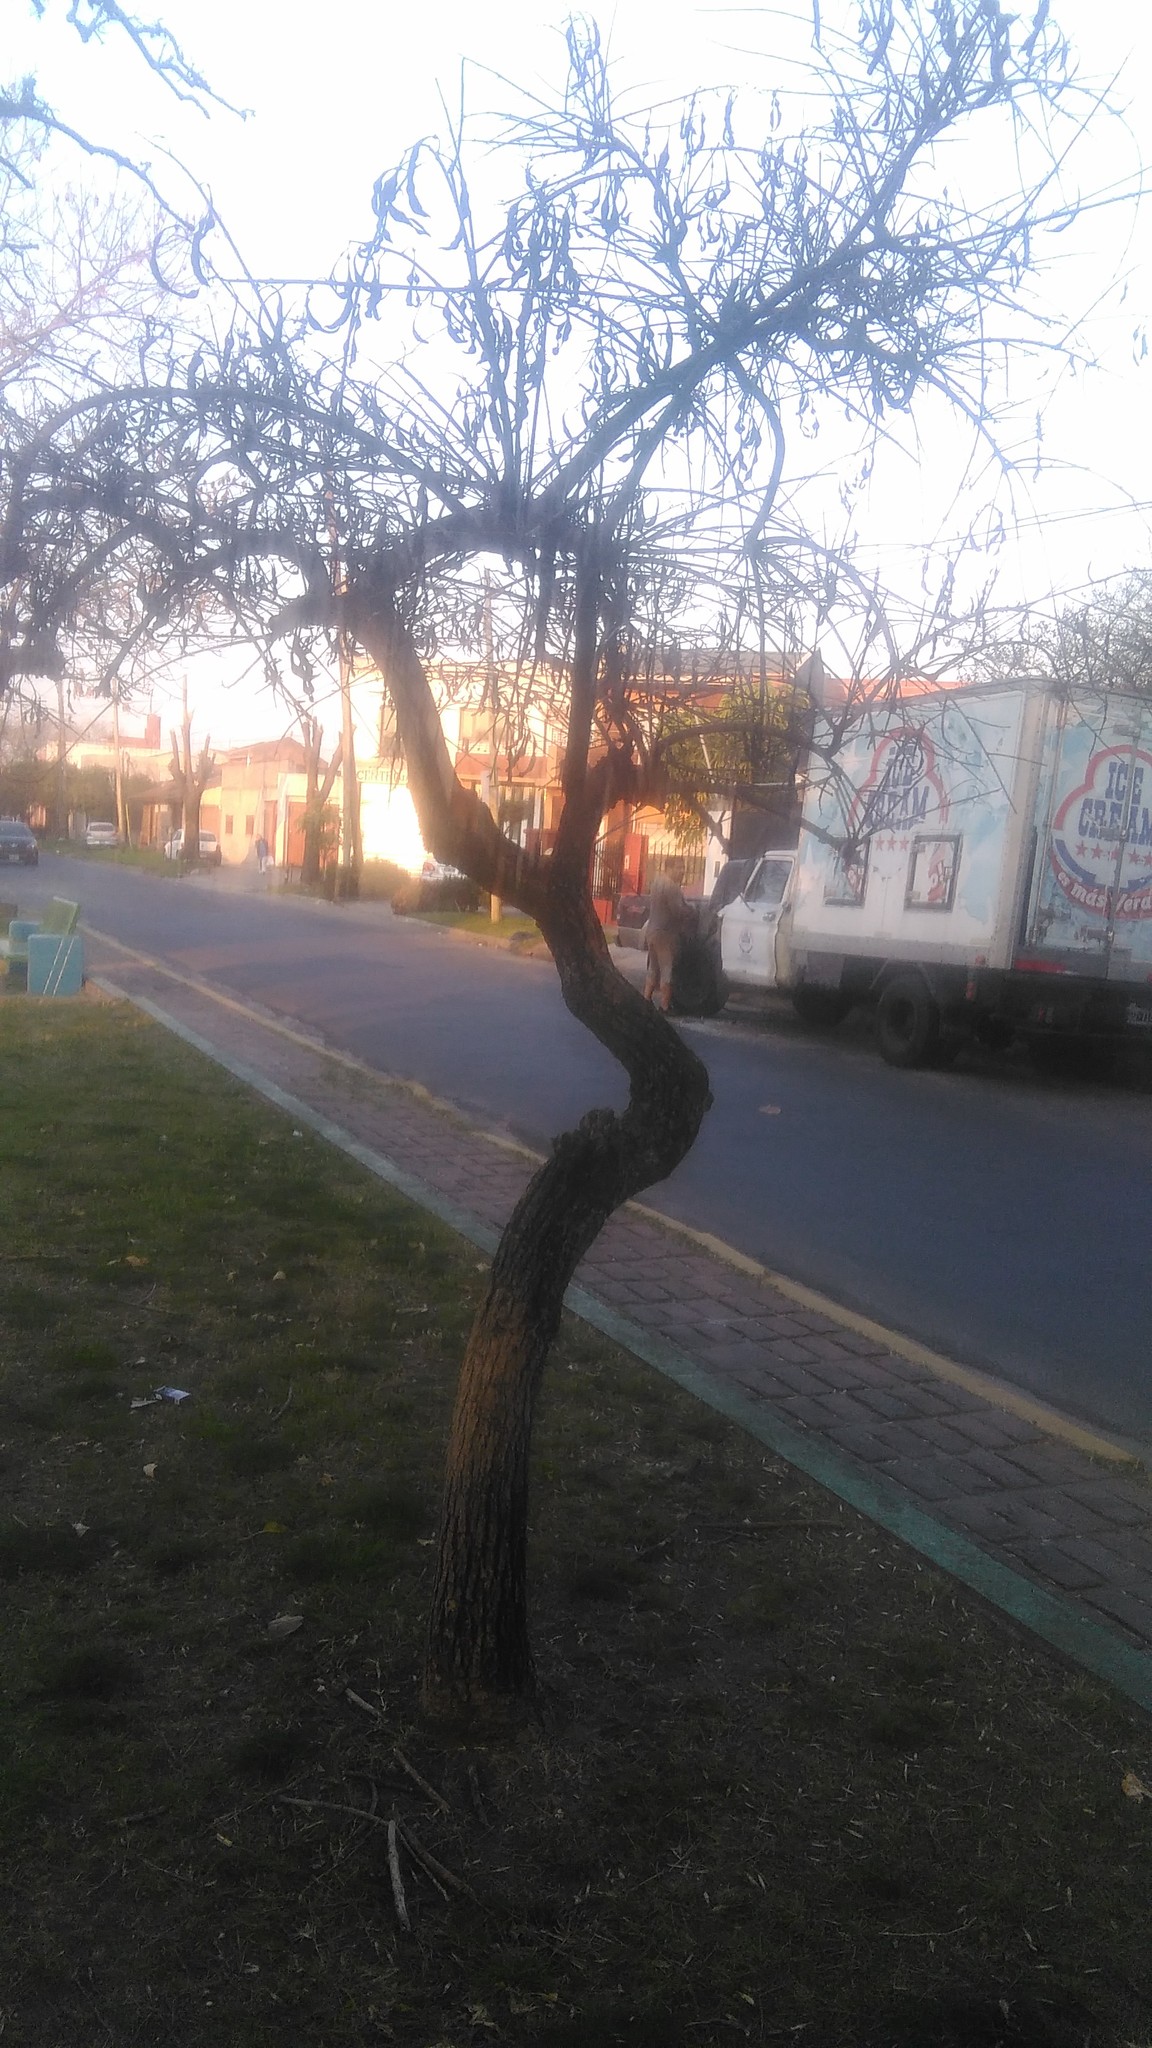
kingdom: Plantae
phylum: Tracheophyta
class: Magnoliopsida
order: Fabales
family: Fabaceae
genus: Erythrina
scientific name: Erythrina crista-galli
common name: Cockspur coral tree
